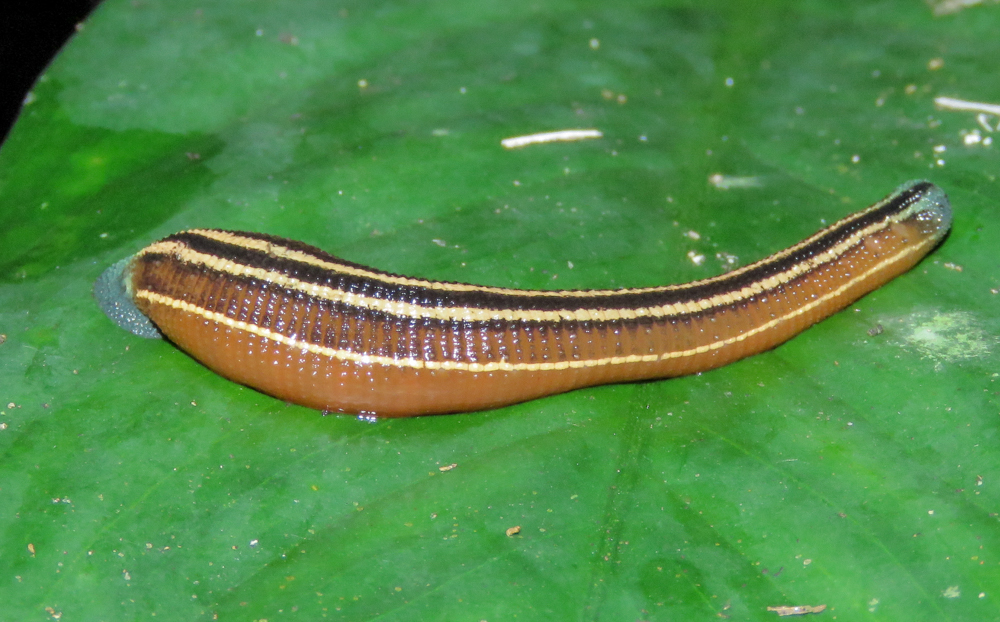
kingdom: Animalia
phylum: Annelida
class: Clitellata
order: Arhynchobdellida
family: Haemadipsidae
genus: Haemadipsa
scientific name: Haemadipsa ornata
